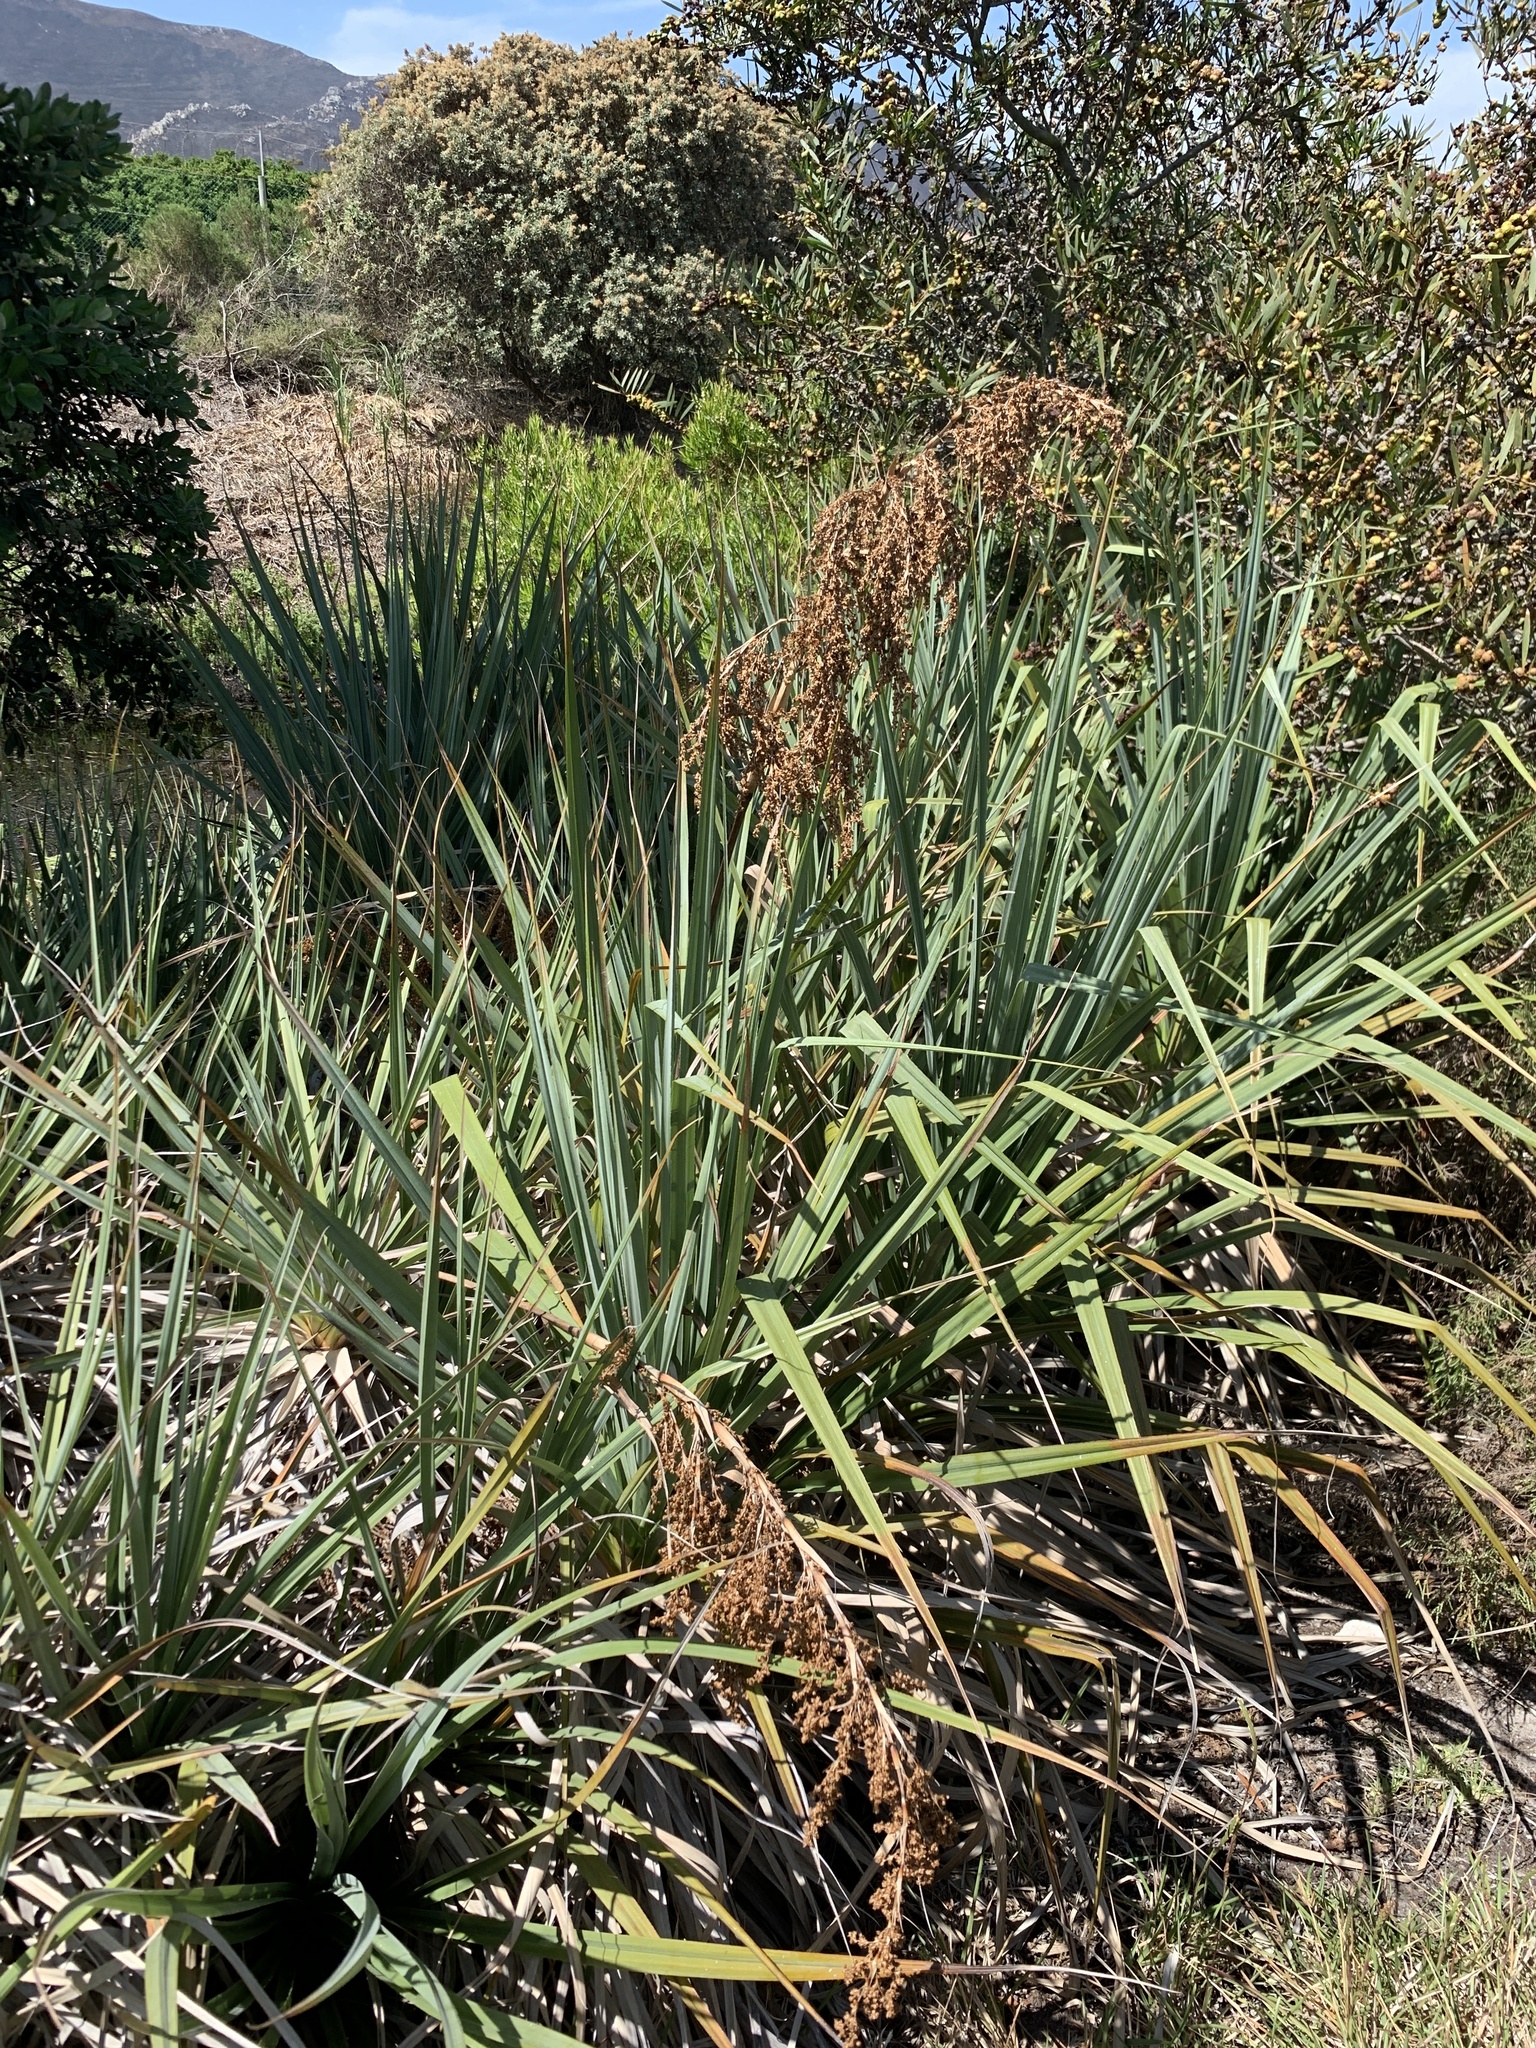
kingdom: Plantae
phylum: Tracheophyta
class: Liliopsida
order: Poales
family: Thurniaceae
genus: Prionium
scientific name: Prionium serratum
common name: Palmiet
